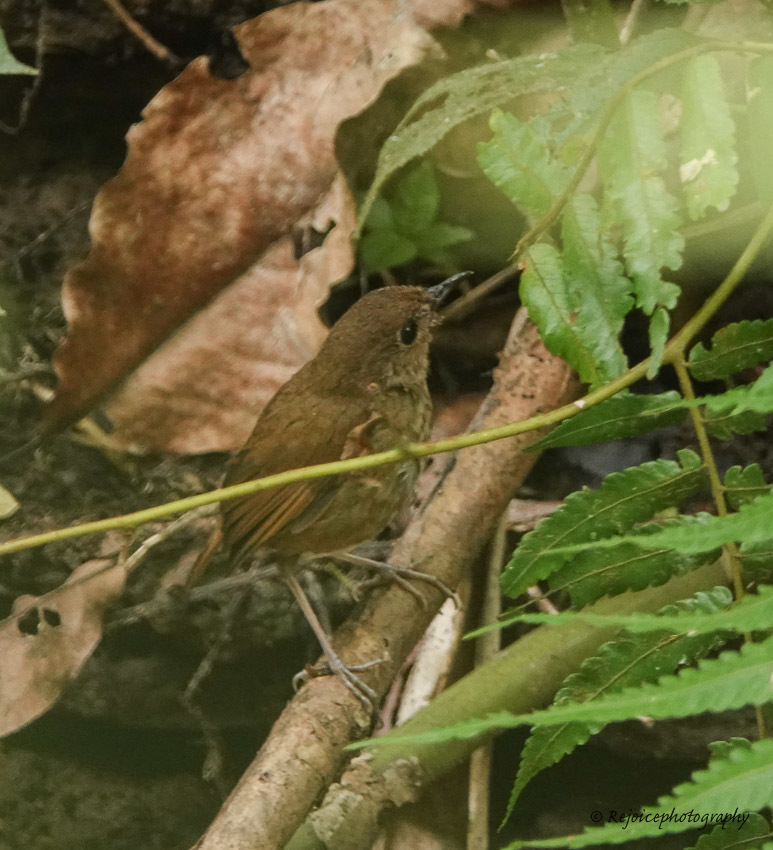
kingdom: Animalia
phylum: Chordata
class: Aves
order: Passeriformes
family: Muscicapidae
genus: Brachypteryx
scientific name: Brachypteryx leucophris
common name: Lesser shortwing
